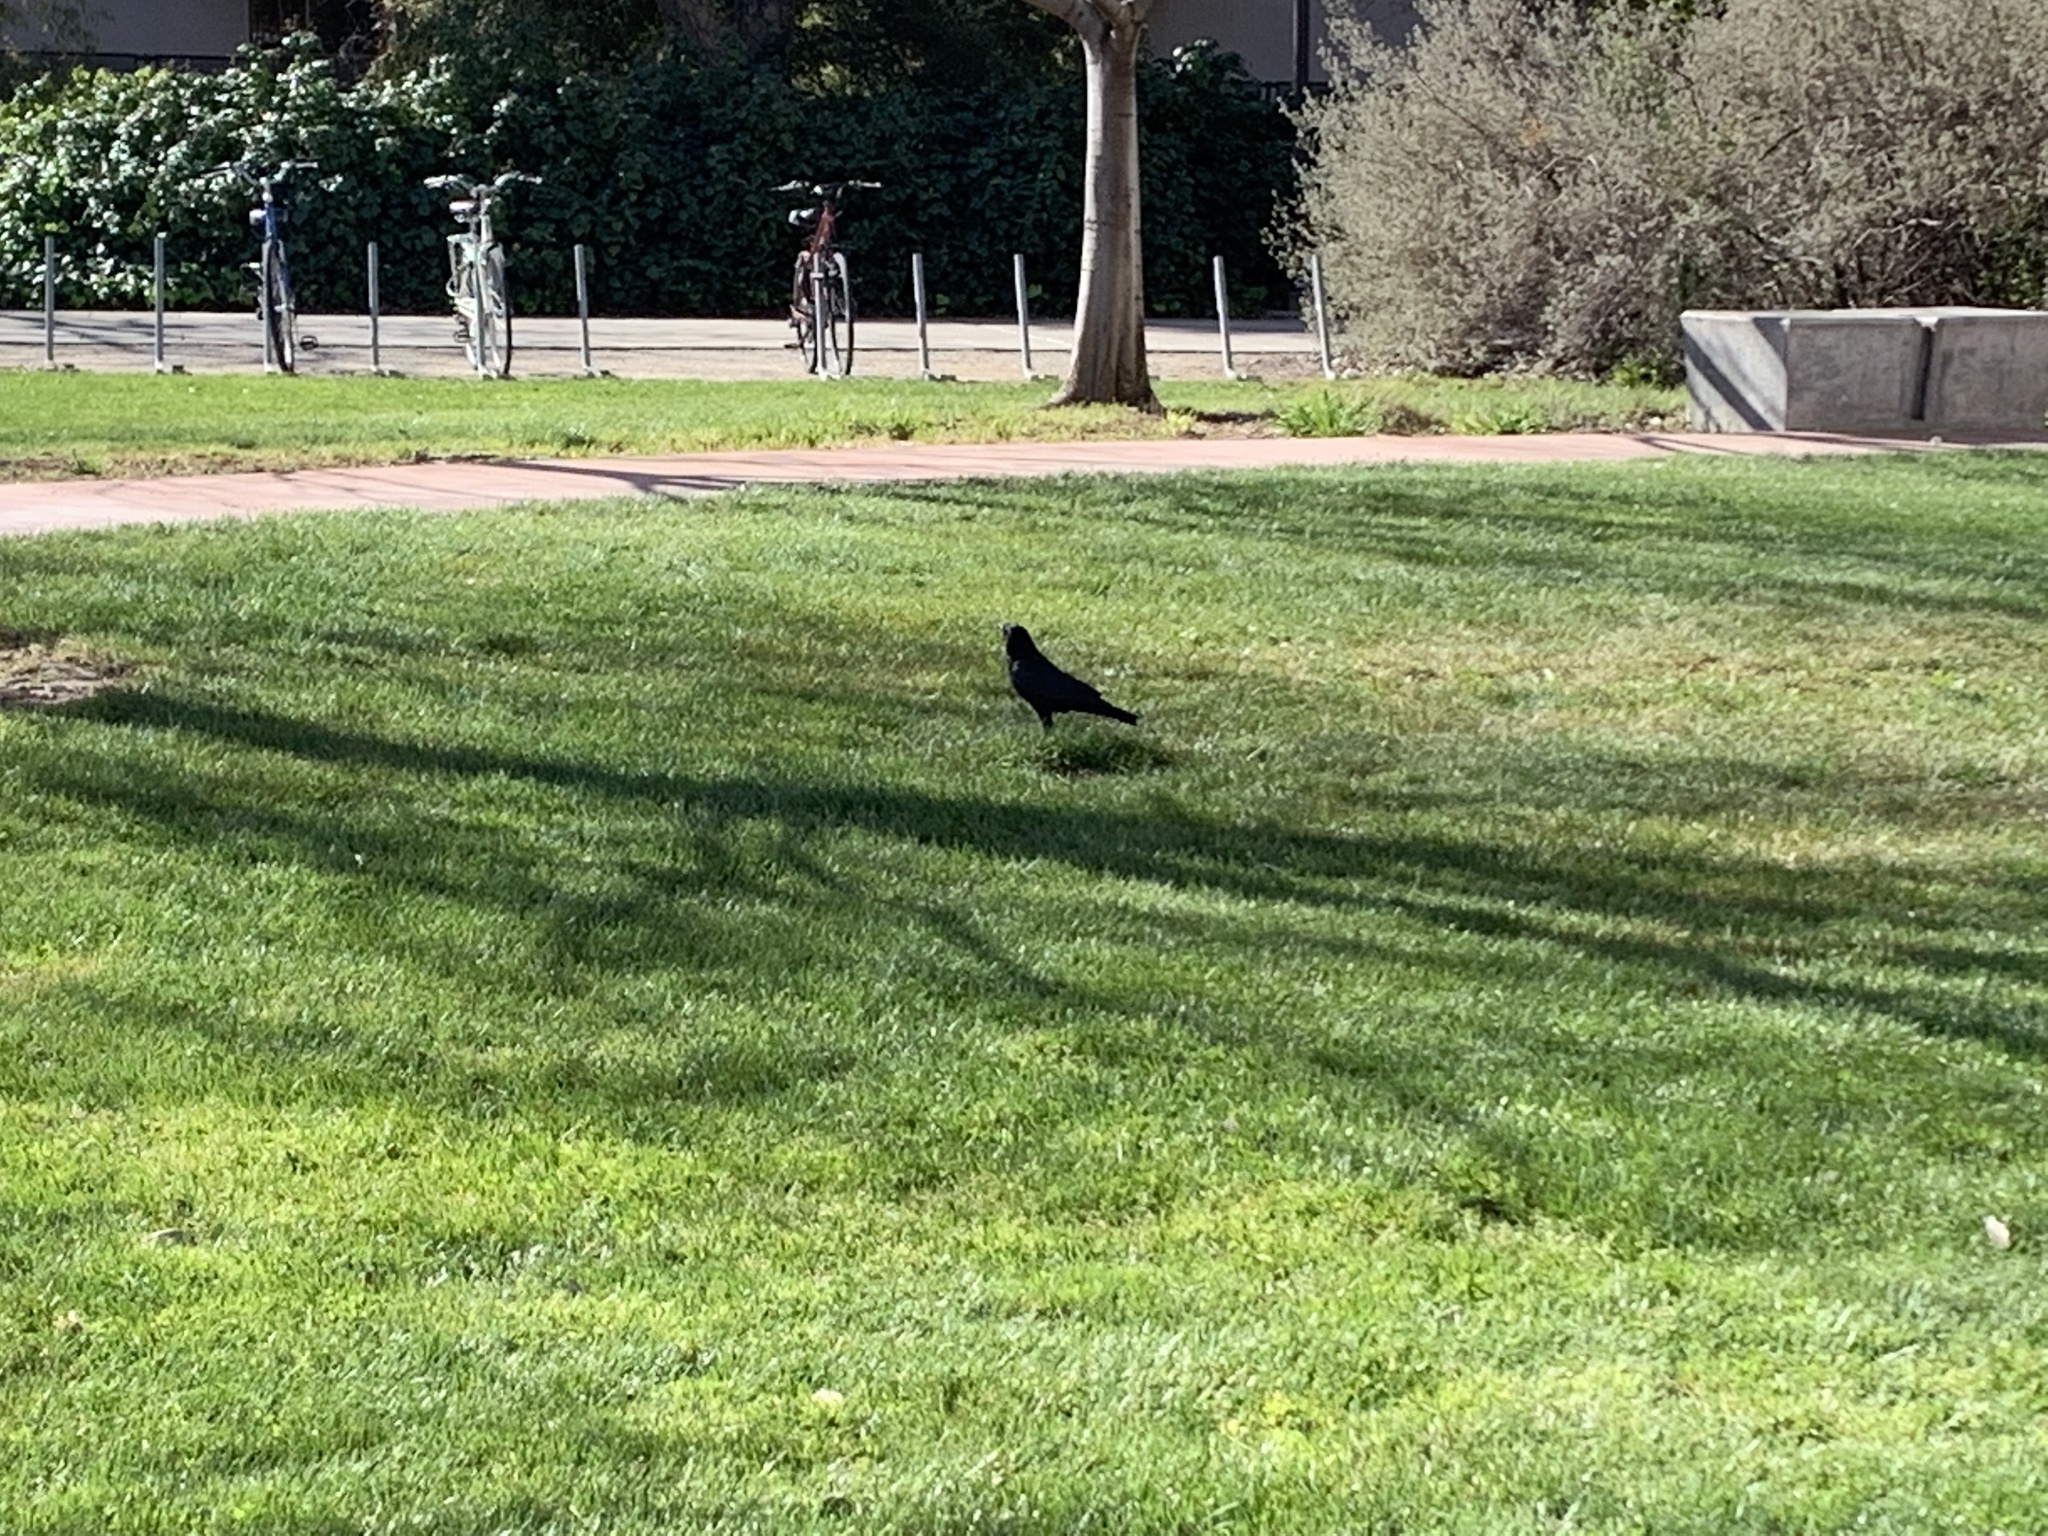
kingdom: Animalia
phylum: Chordata
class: Aves
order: Passeriformes
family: Corvidae
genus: Corvus
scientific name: Corvus brachyrhynchos
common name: American crow
